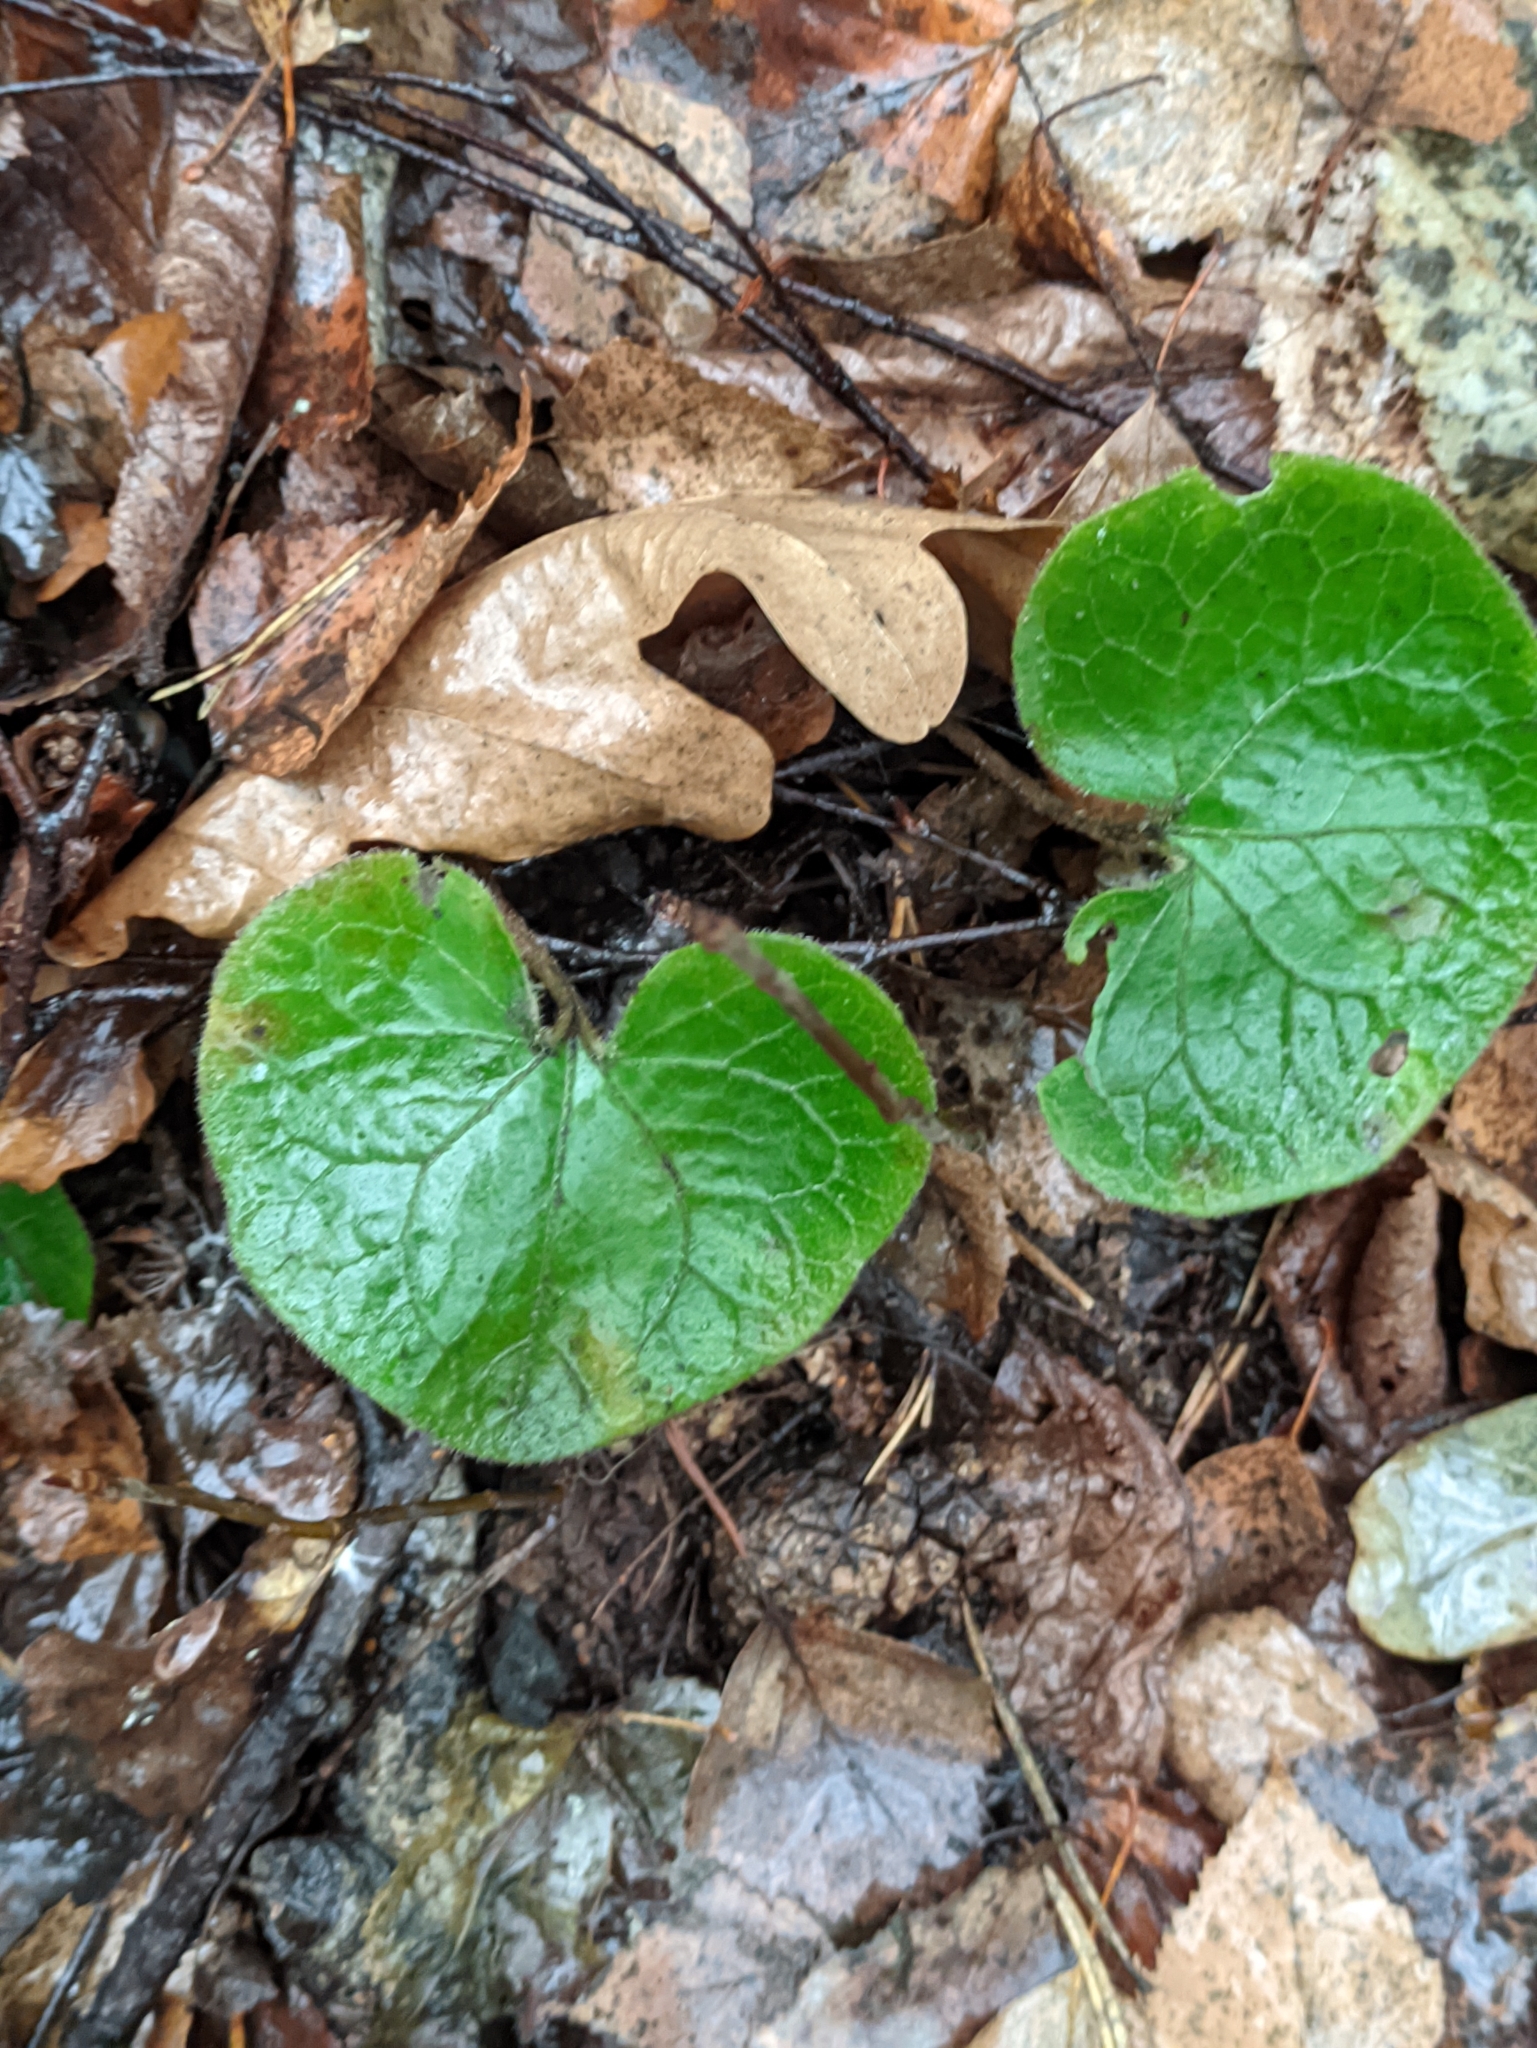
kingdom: Plantae
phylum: Tracheophyta
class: Magnoliopsida
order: Piperales
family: Aristolochiaceae
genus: Asarum
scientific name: Asarum europaeum
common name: Asarabacca
